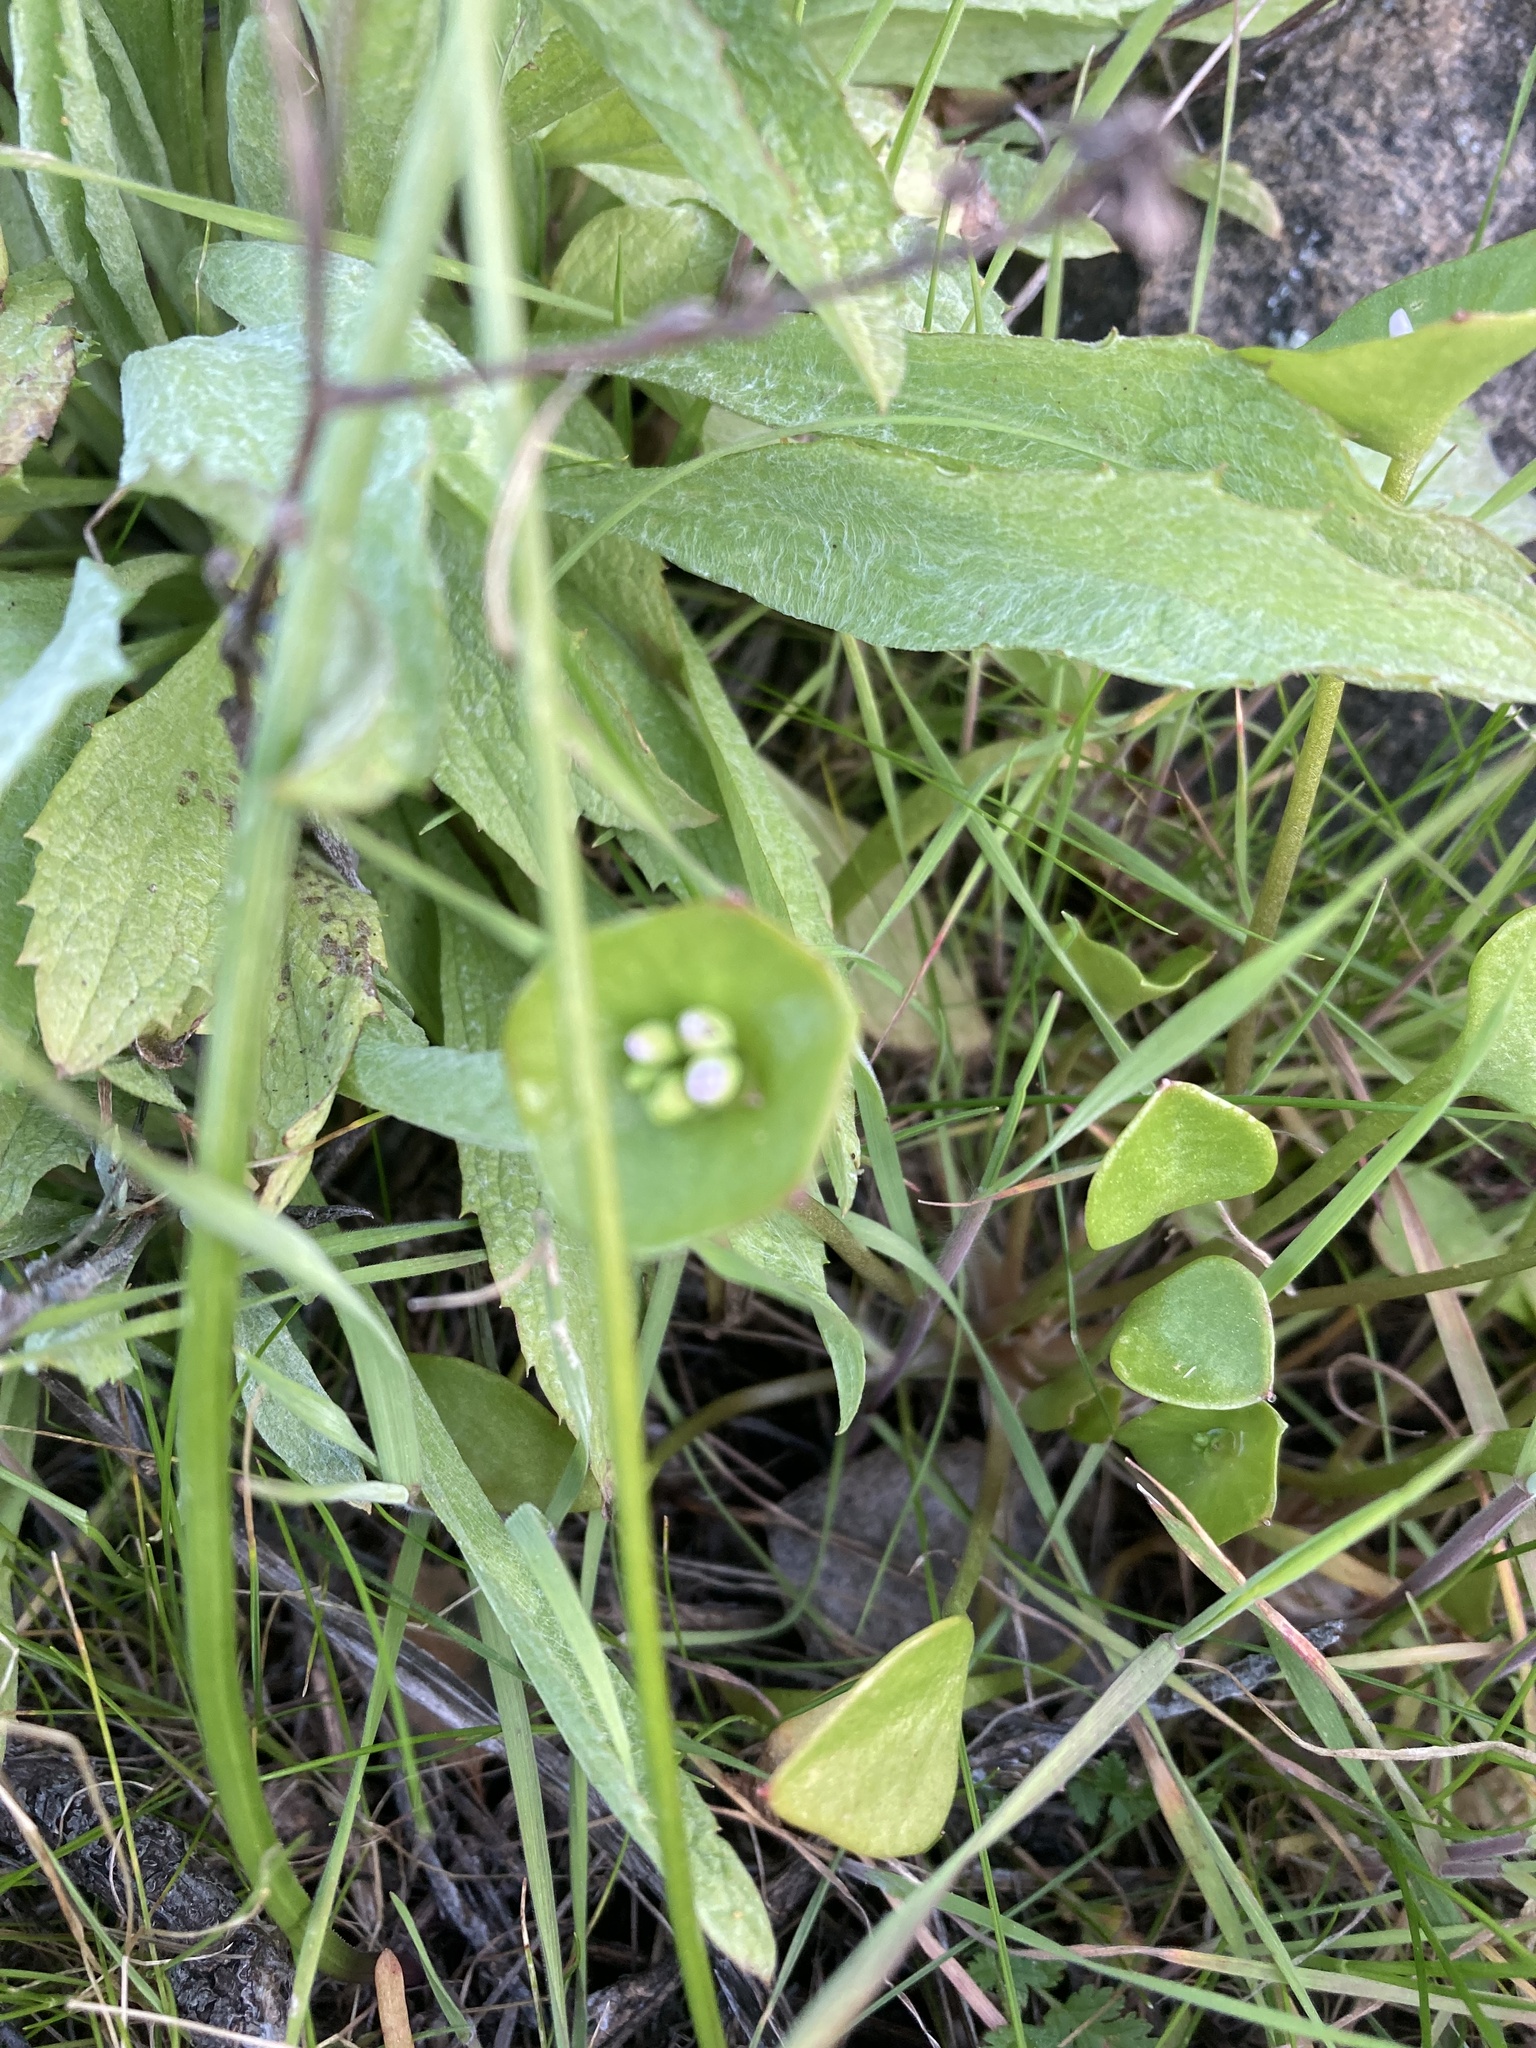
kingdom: Plantae
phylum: Tracheophyta
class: Magnoliopsida
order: Caryophyllales
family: Montiaceae
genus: Claytonia
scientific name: Claytonia perfoliata
